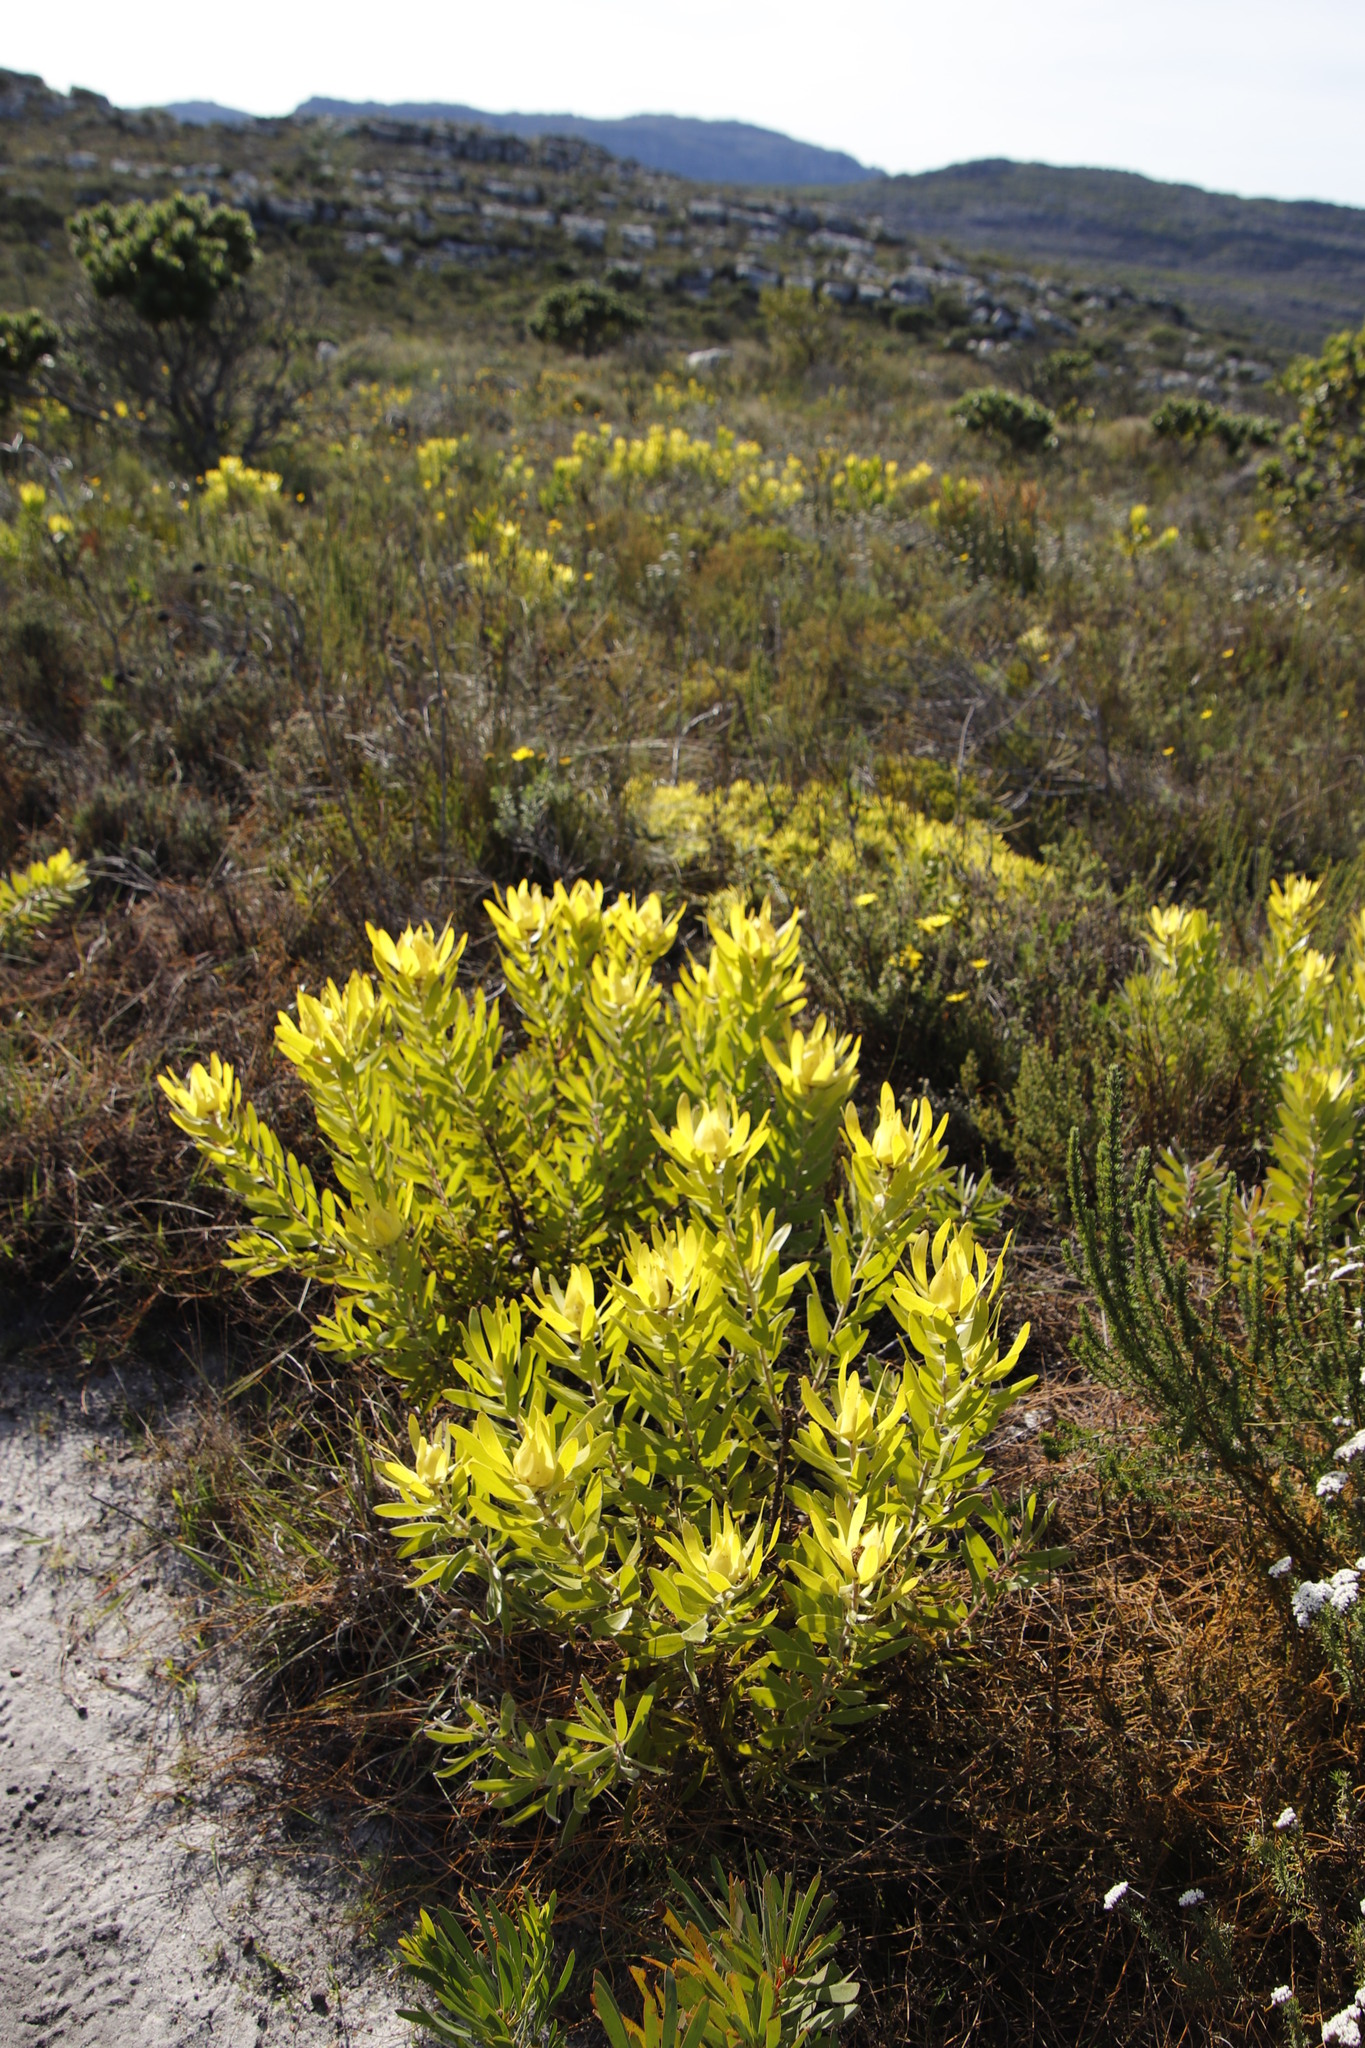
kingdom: Plantae
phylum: Tracheophyta
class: Magnoliopsida
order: Proteales
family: Proteaceae
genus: Leucadendron
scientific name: Leucadendron laureolum
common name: Golden sunshinebush
